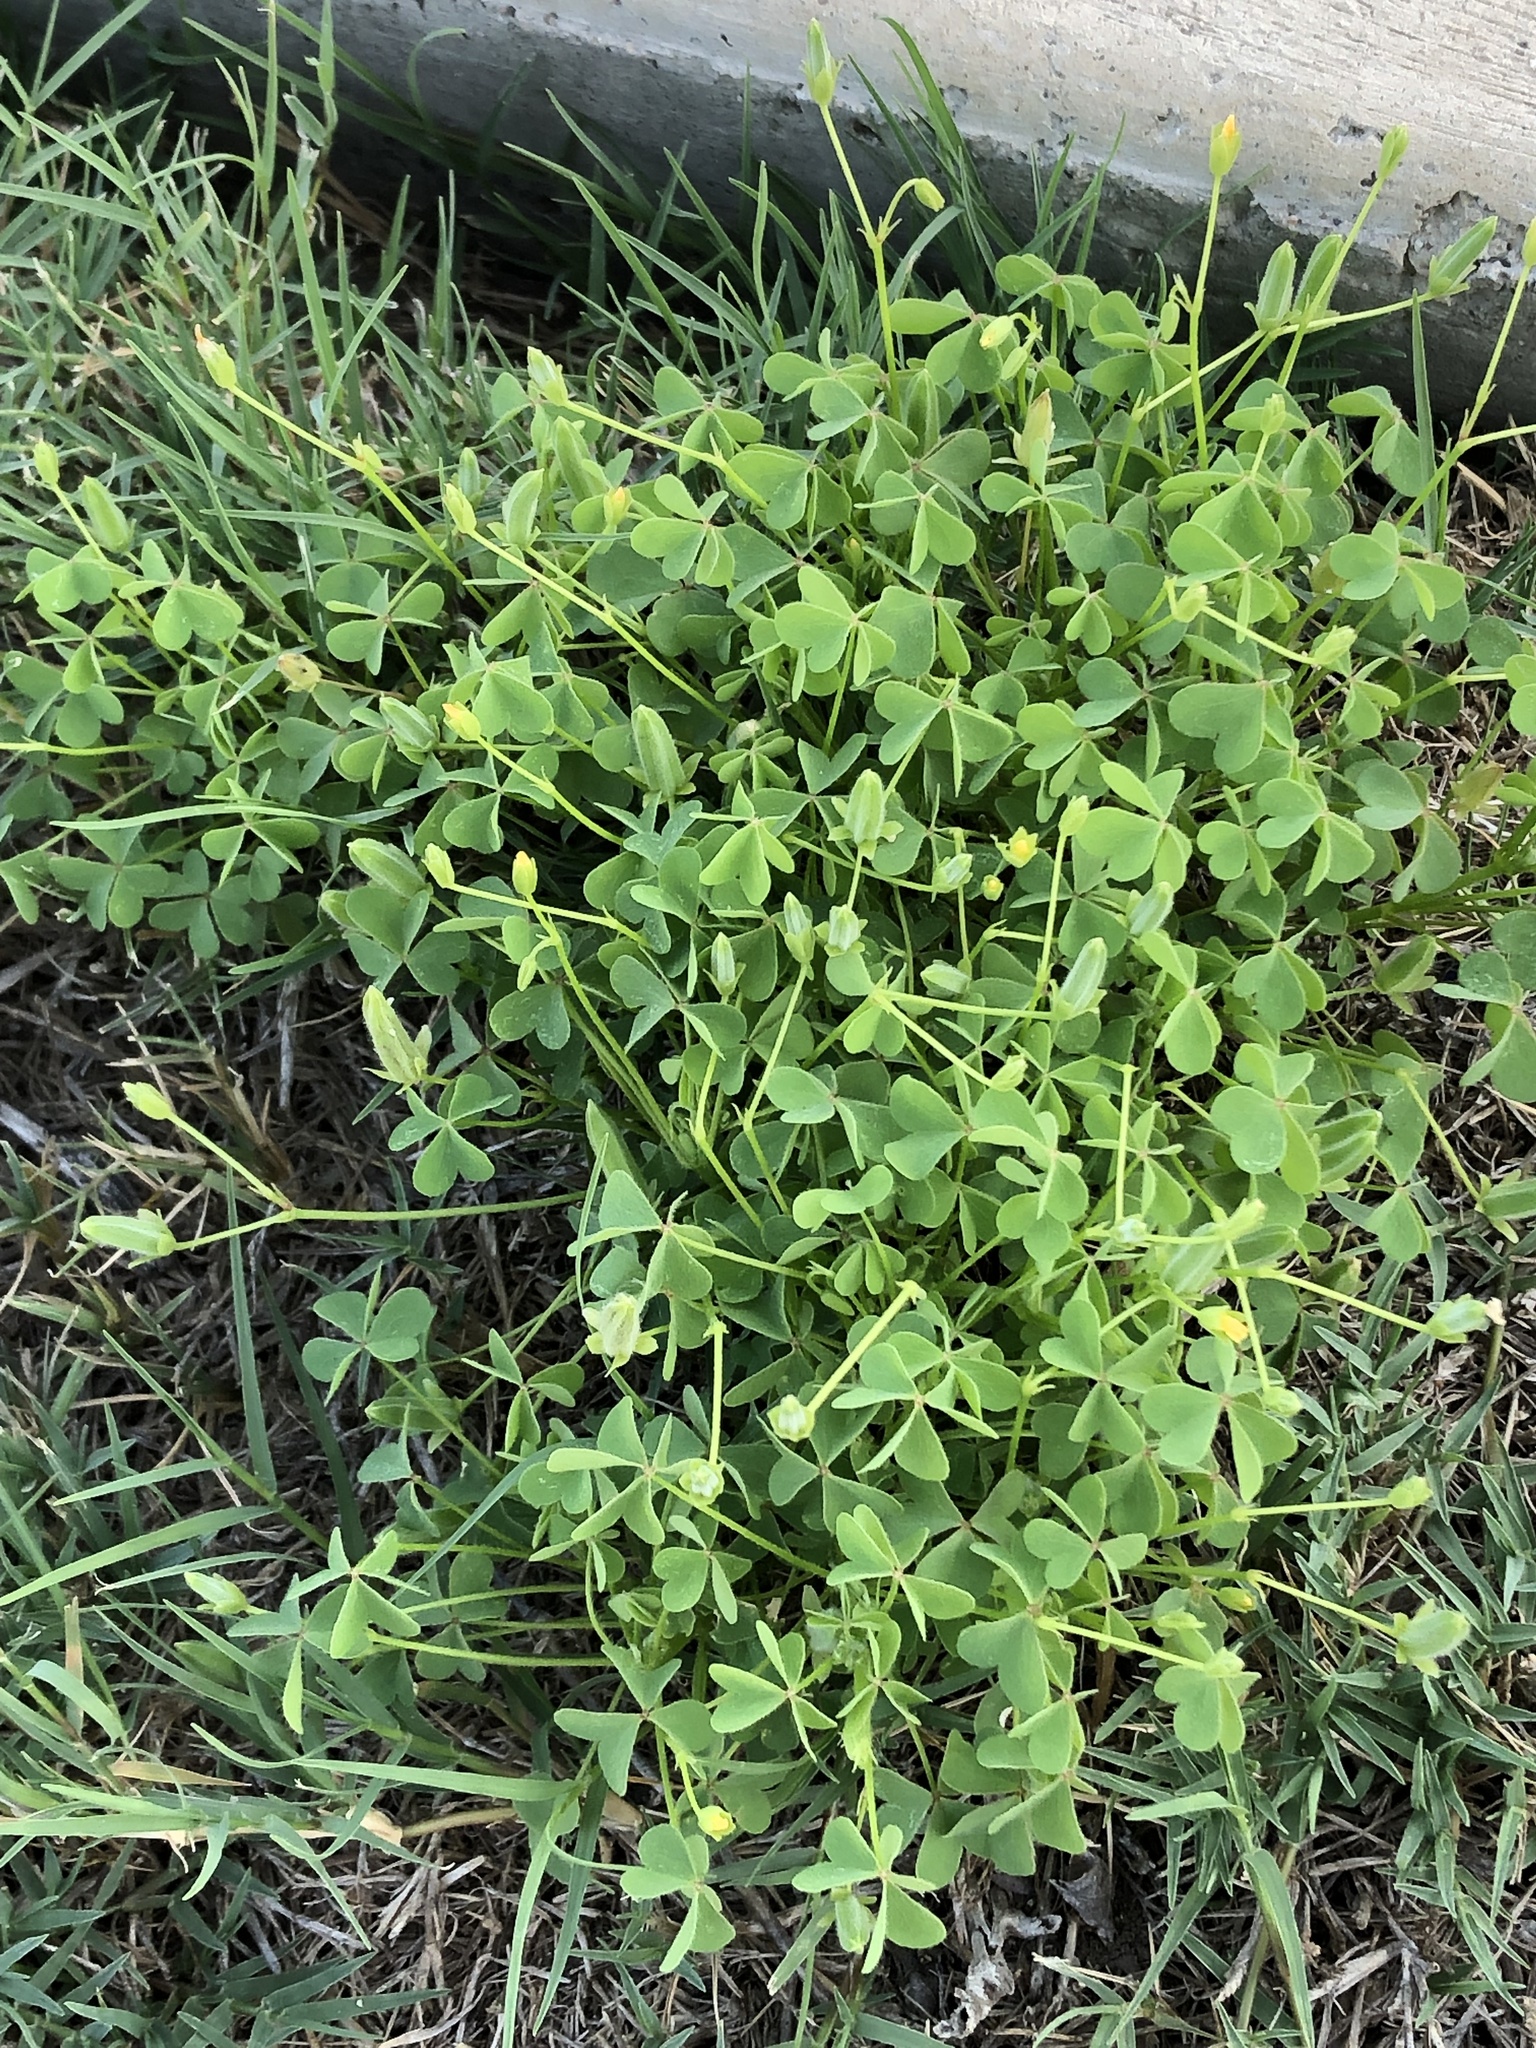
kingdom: Plantae
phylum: Tracheophyta
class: Magnoliopsida
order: Oxalidales
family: Oxalidaceae
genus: Oxalis
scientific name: Oxalis dillenii
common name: Sussex yellow-sorrel
